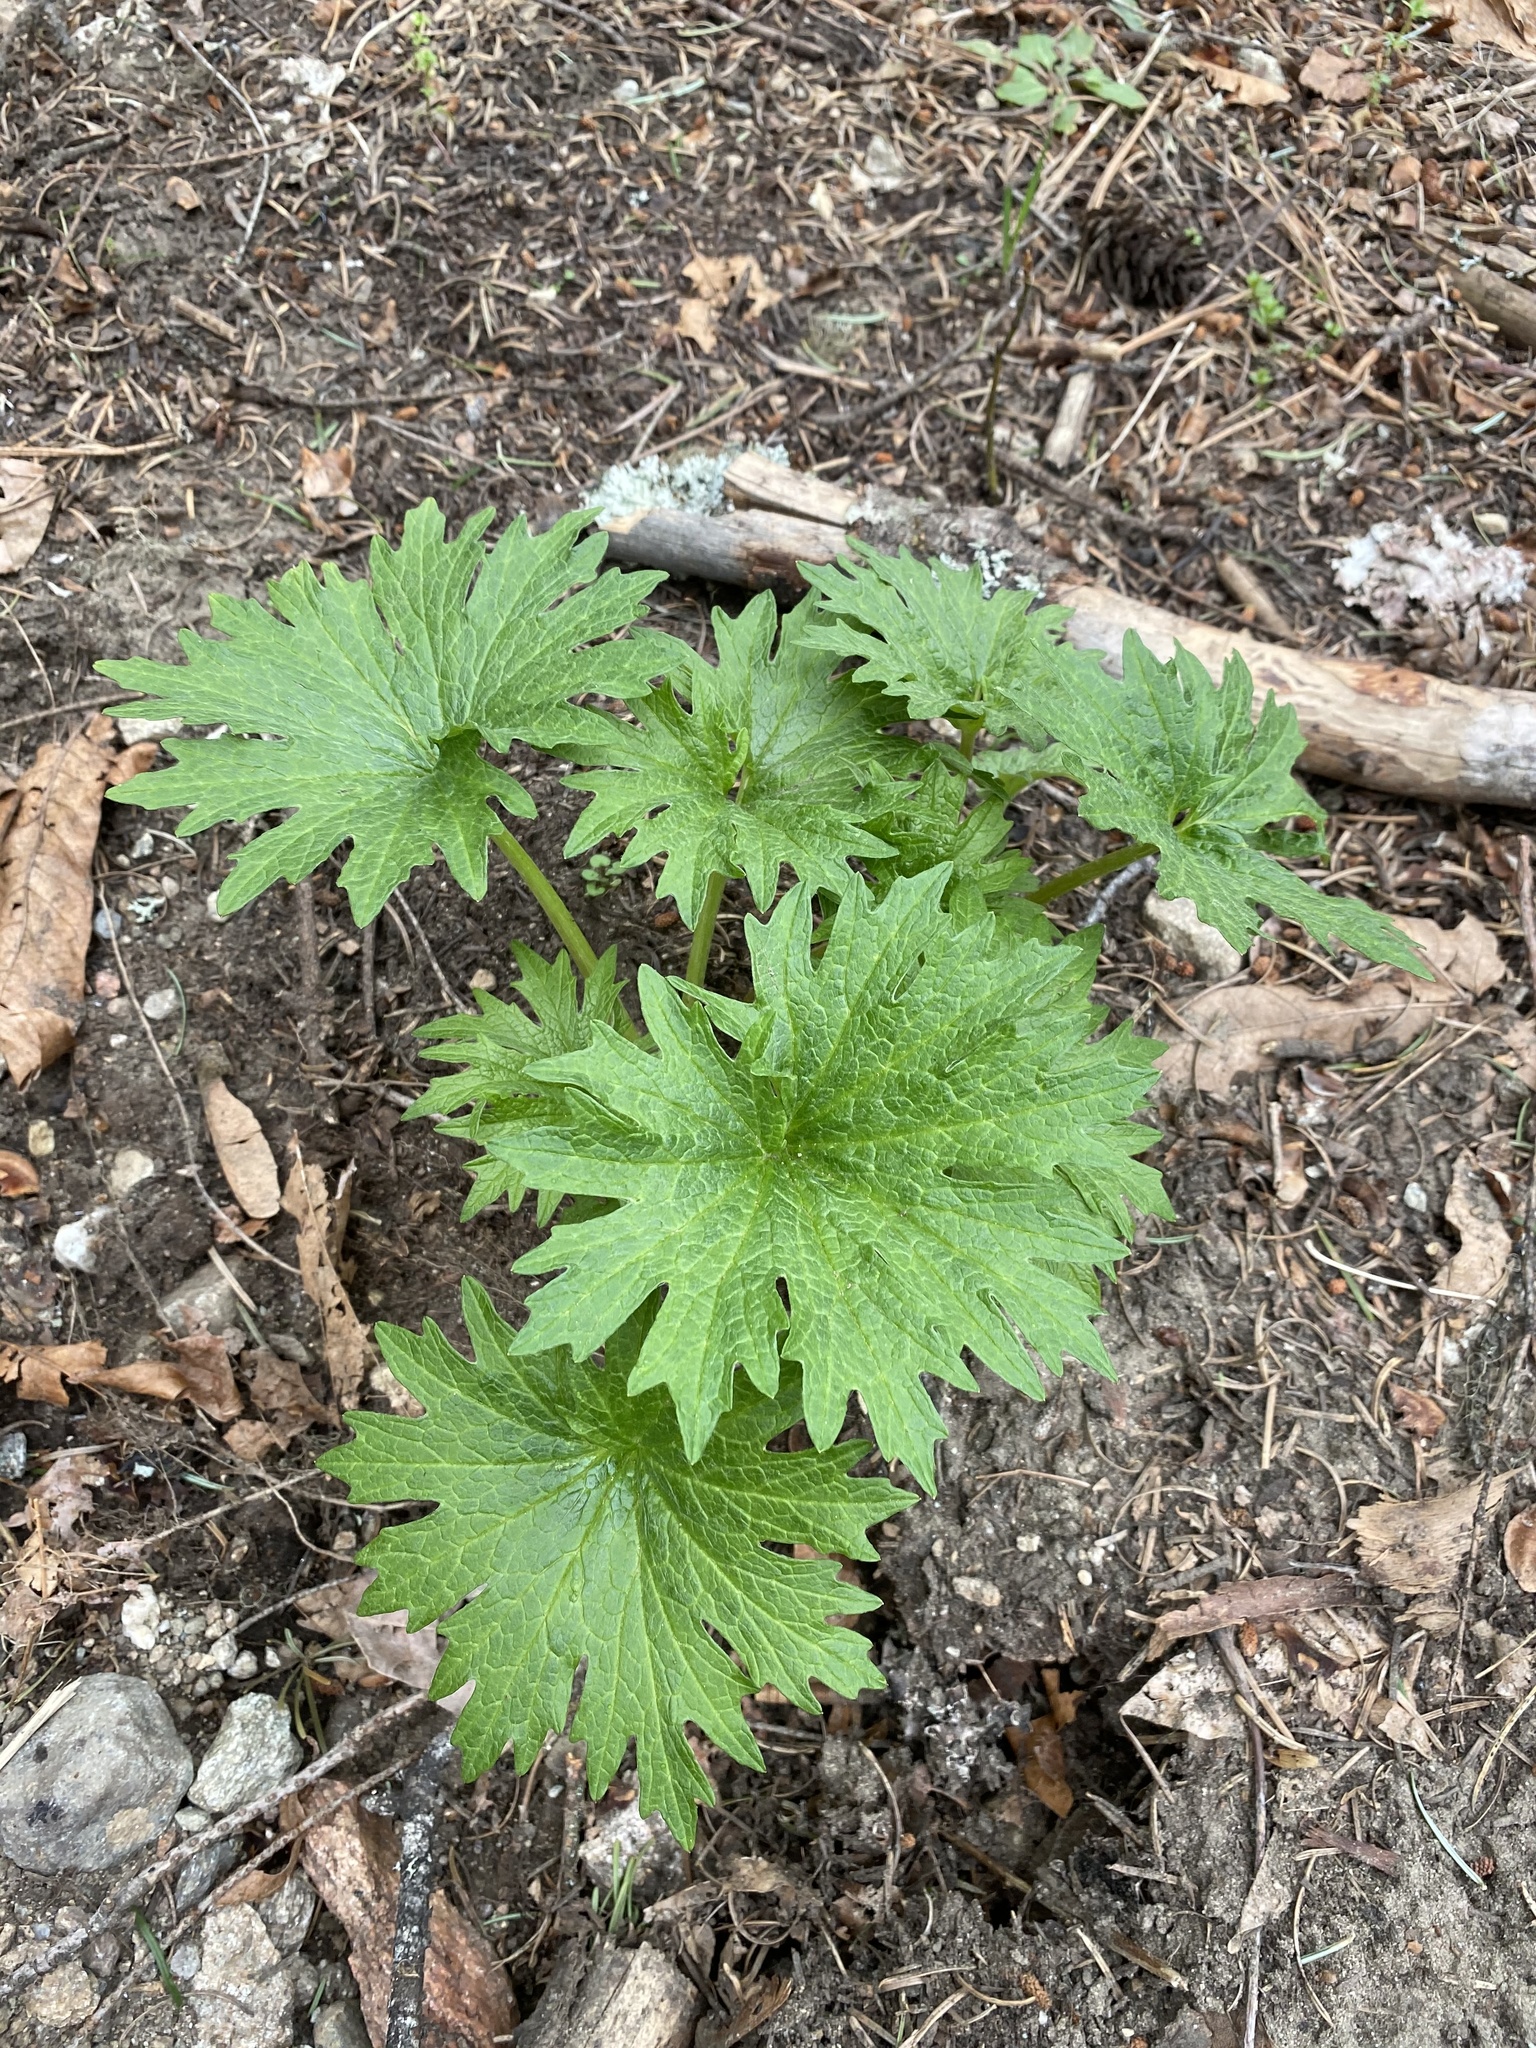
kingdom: Plantae
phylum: Tracheophyta
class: Magnoliopsida
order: Asterales
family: Asteraceae
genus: Cacaliopsis
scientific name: Cacaliopsis nardosmia
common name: Silvercrown
